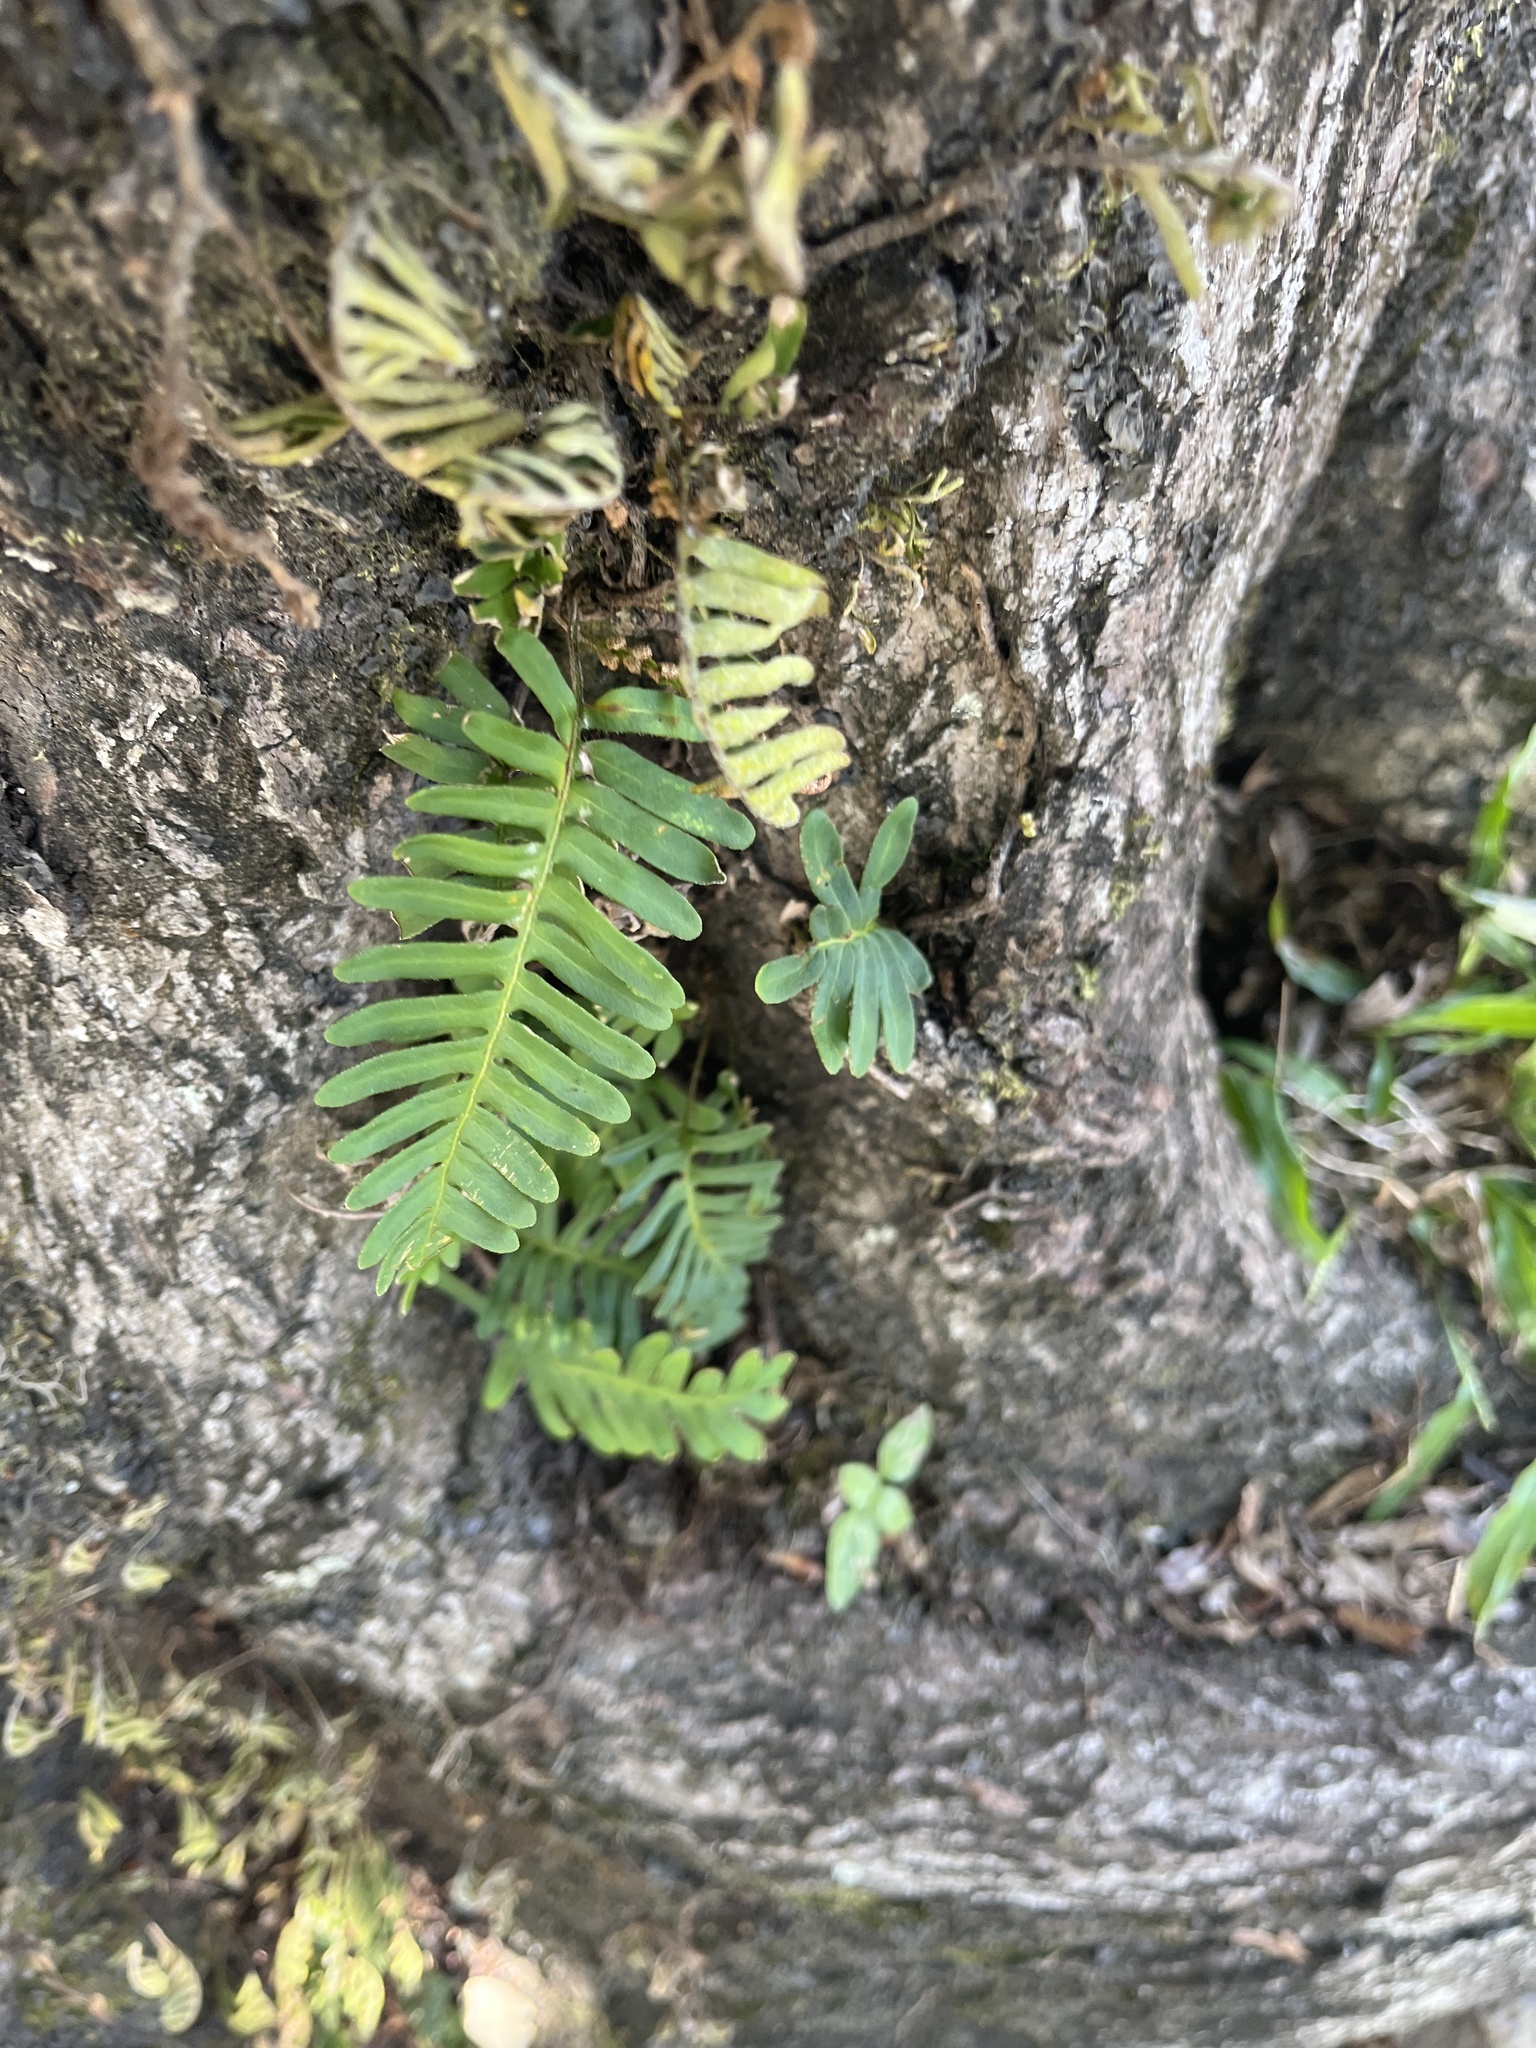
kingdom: Plantae
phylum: Tracheophyta
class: Polypodiopsida
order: Polypodiales
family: Polypodiaceae
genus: Pleopeltis
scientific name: Pleopeltis michauxiana
